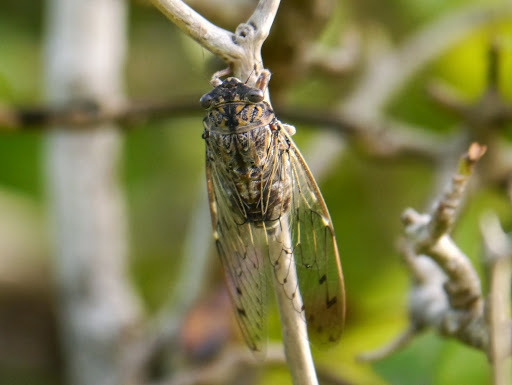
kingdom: Animalia
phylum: Arthropoda
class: Insecta
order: Hemiptera
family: Cicadidae
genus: Cicada
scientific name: Cicada barbara
